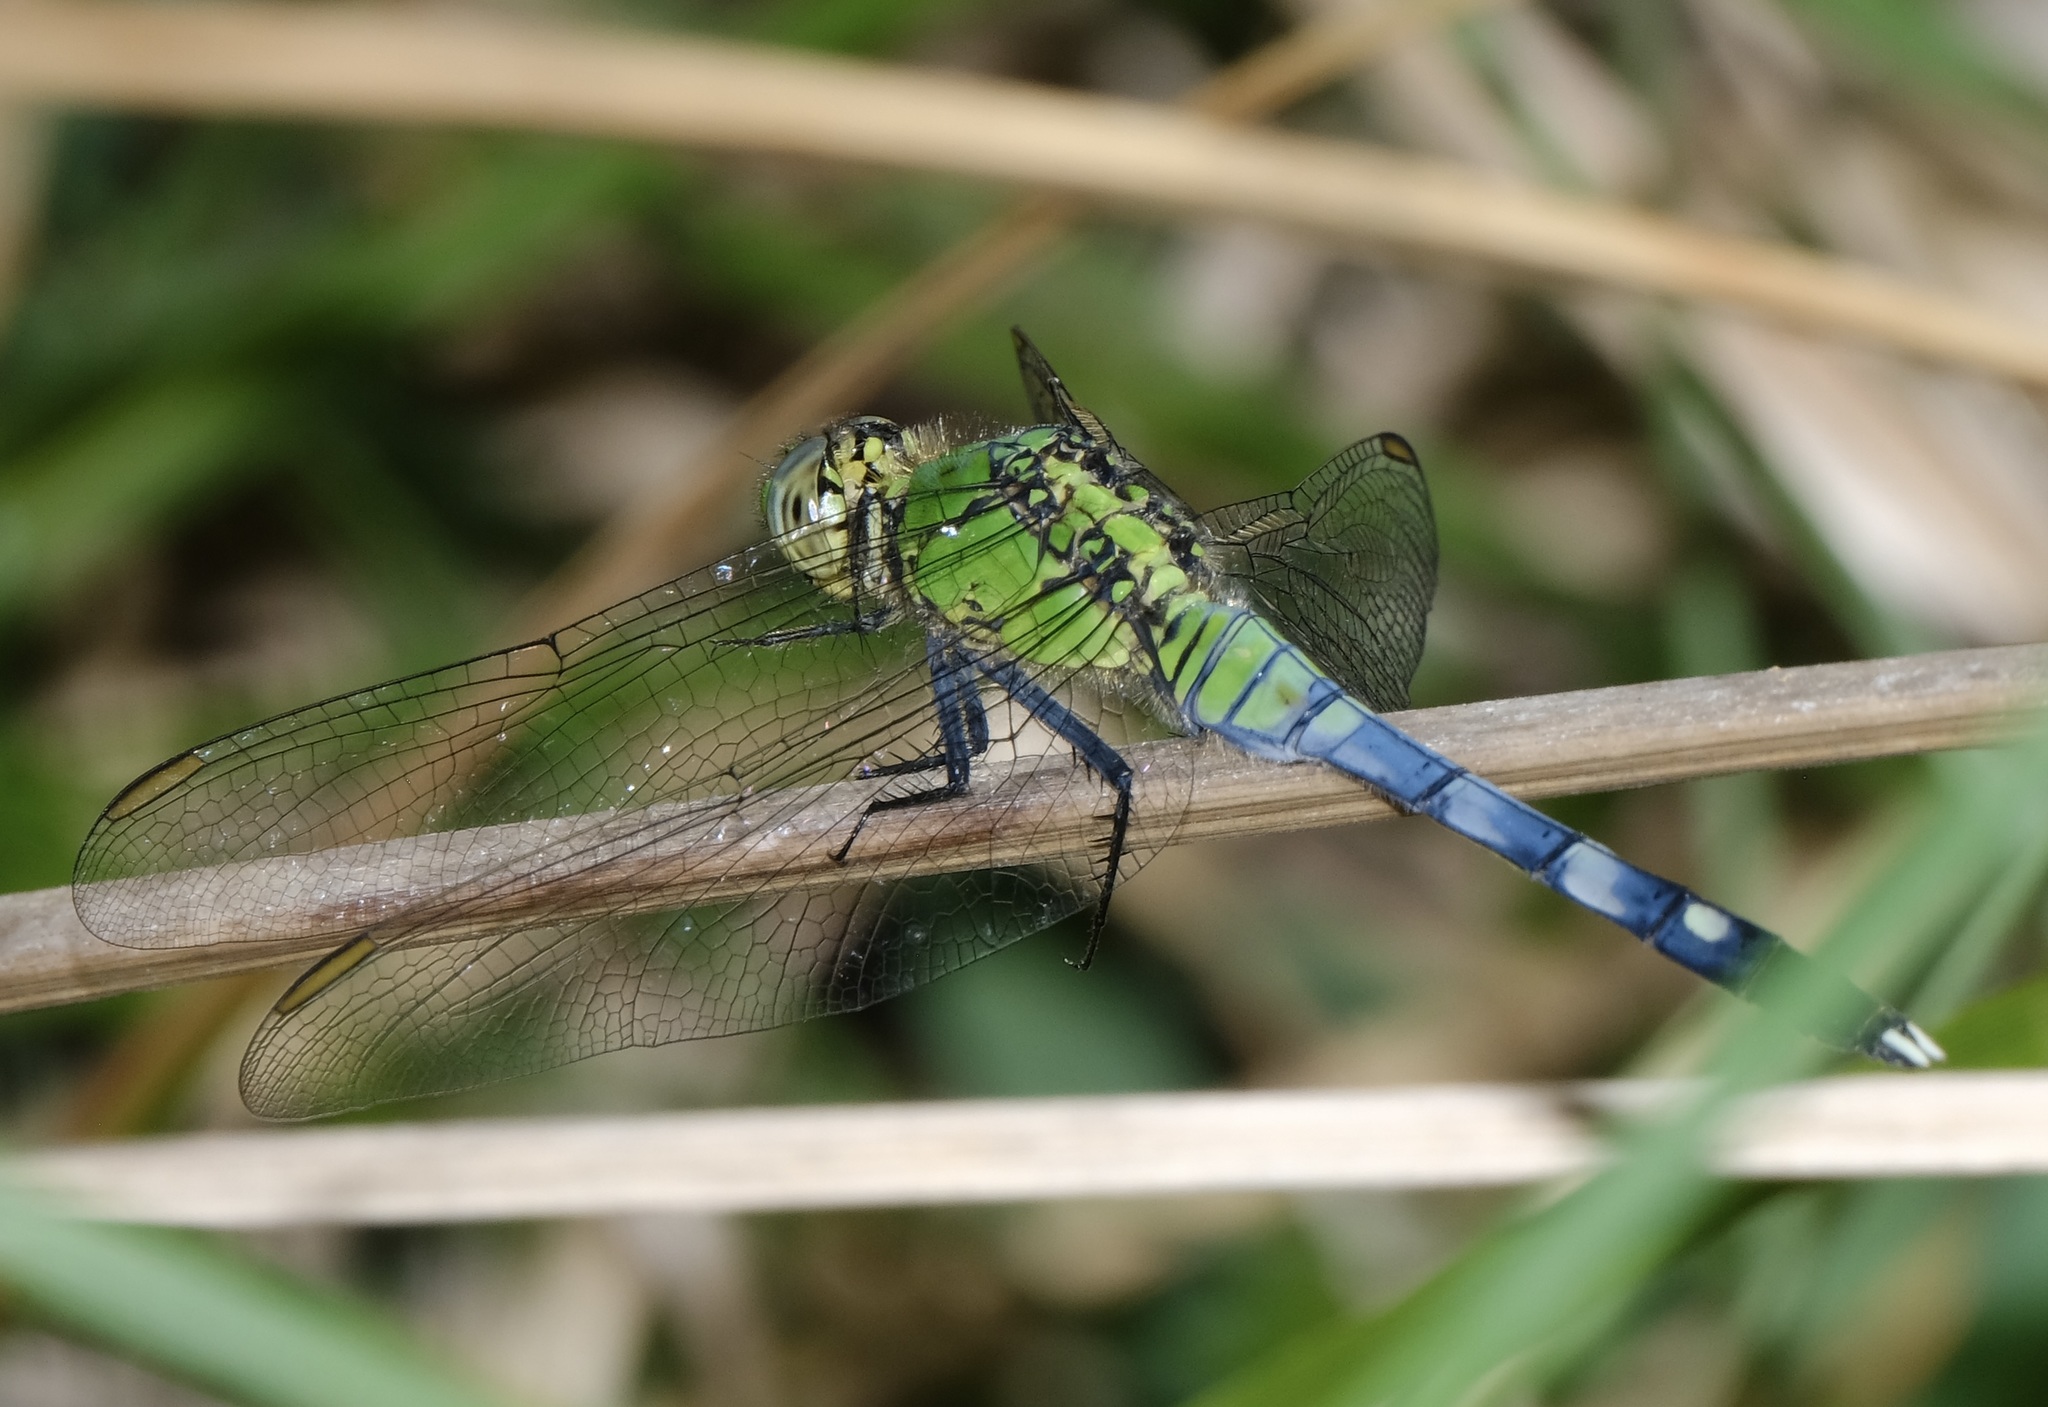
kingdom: Animalia
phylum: Arthropoda
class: Insecta
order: Odonata
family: Libellulidae
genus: Erythemis
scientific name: Erythemis simplicicollis
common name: Eastern pondhawk
